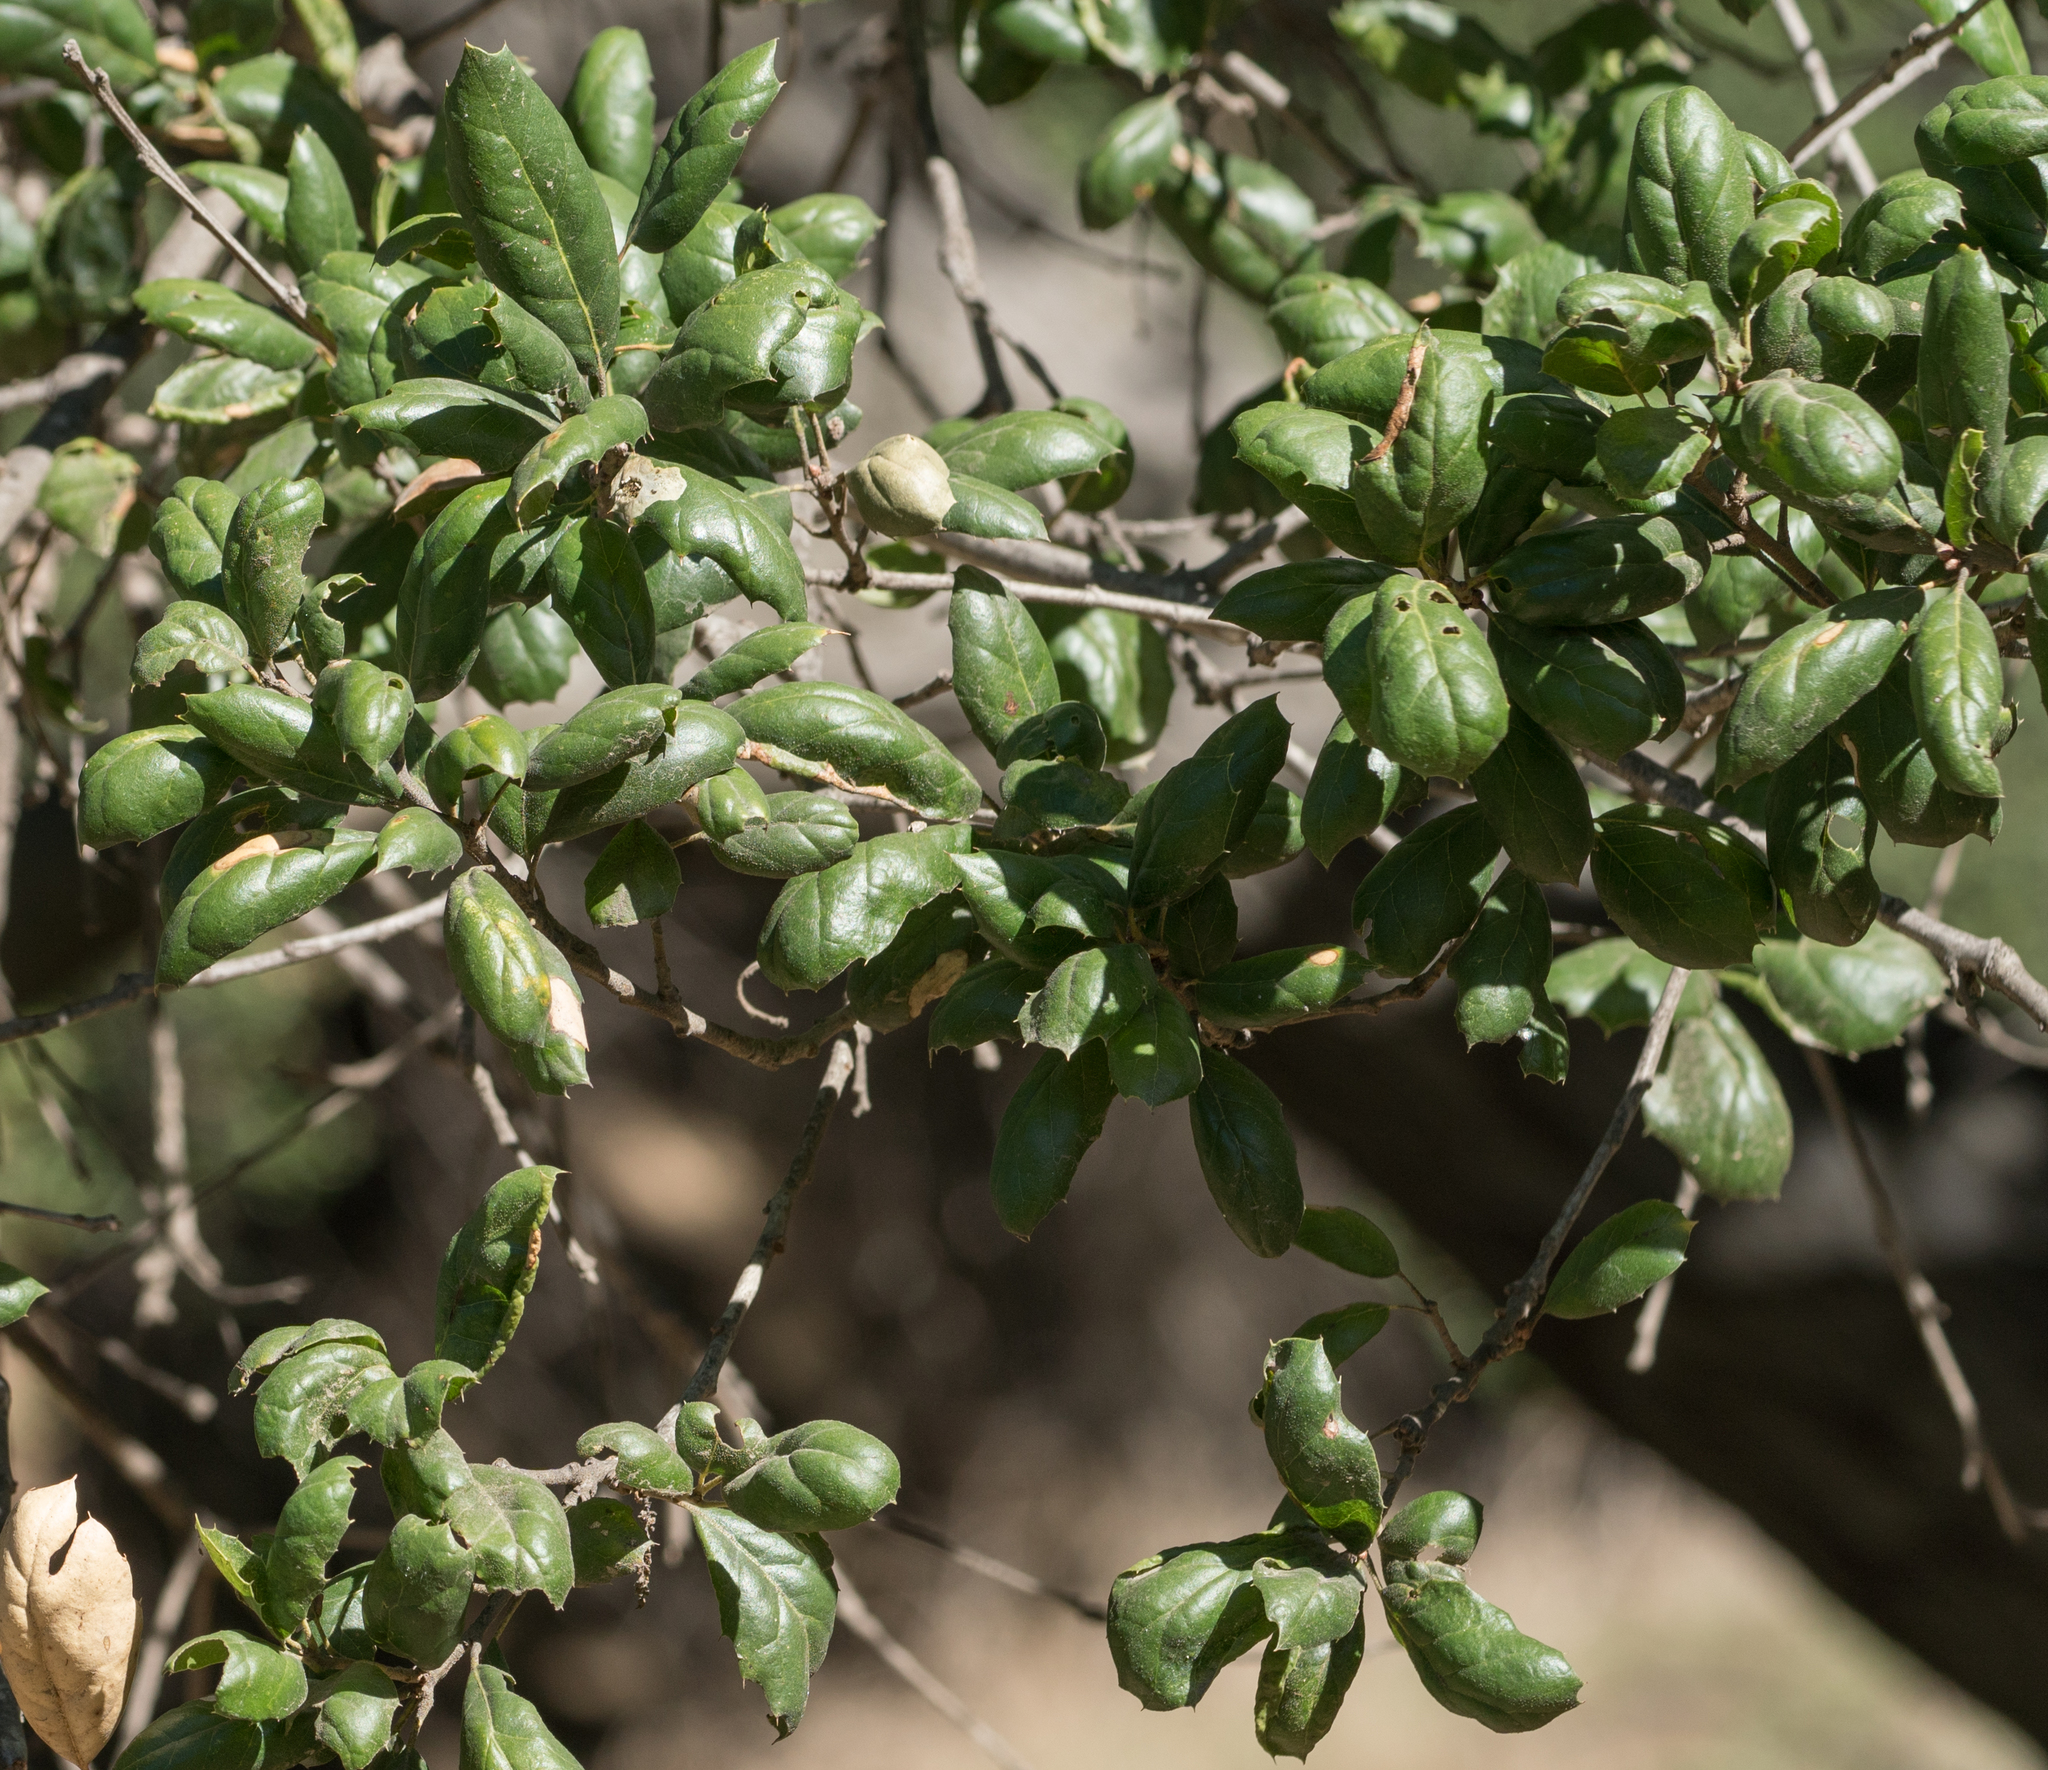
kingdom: Plantae
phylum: Tracheophyta
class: Magnoliopsida
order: Fagales
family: Fagaceae
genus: Quercus
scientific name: Quercus agrifolia
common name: California live oak
